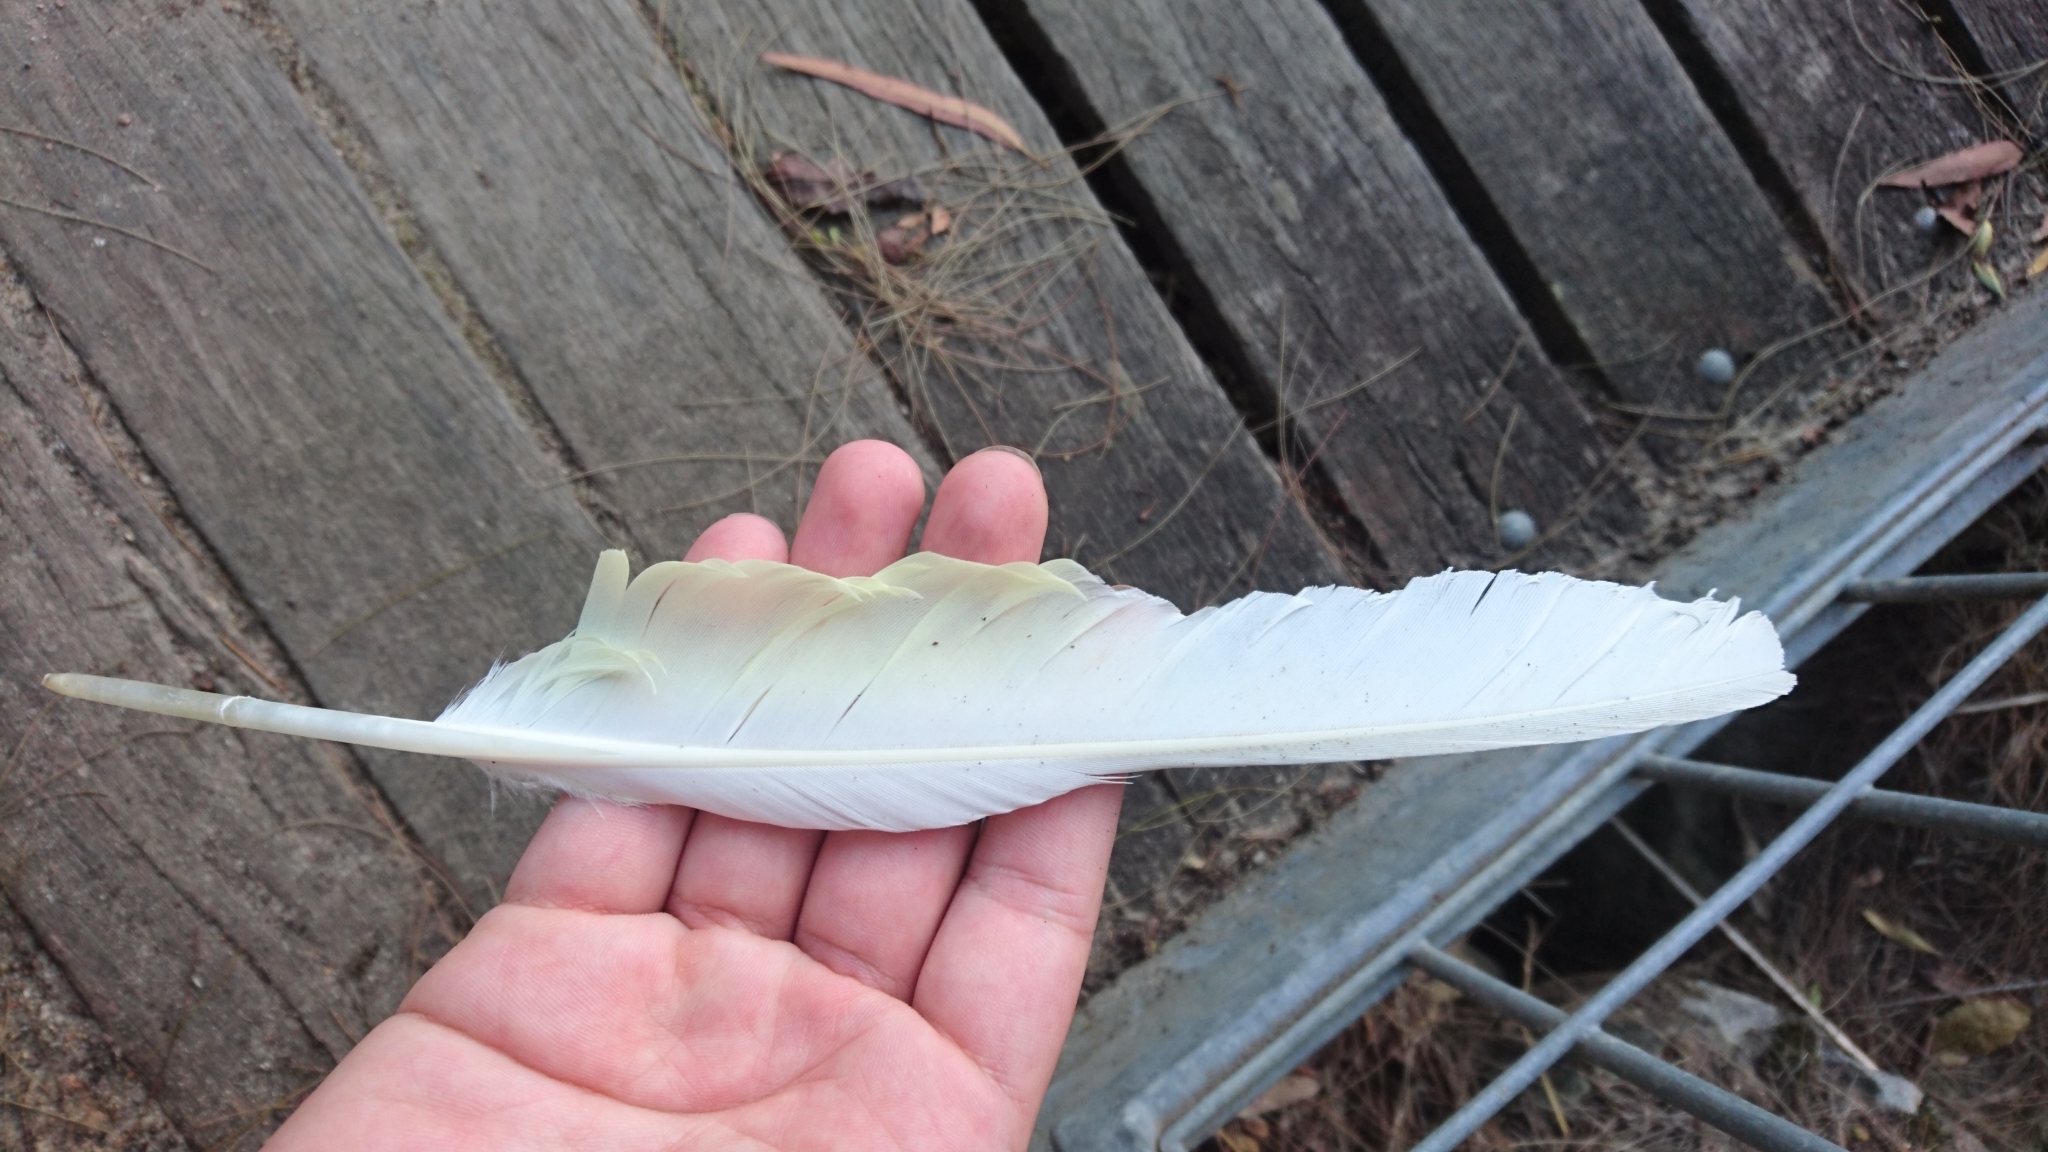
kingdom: Animalia
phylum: Chordata
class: Aves
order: Psittaciformes
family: Psittacidae
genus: Cacatua
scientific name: Cacatua galerita
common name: Sulphur-crested cockatoo
